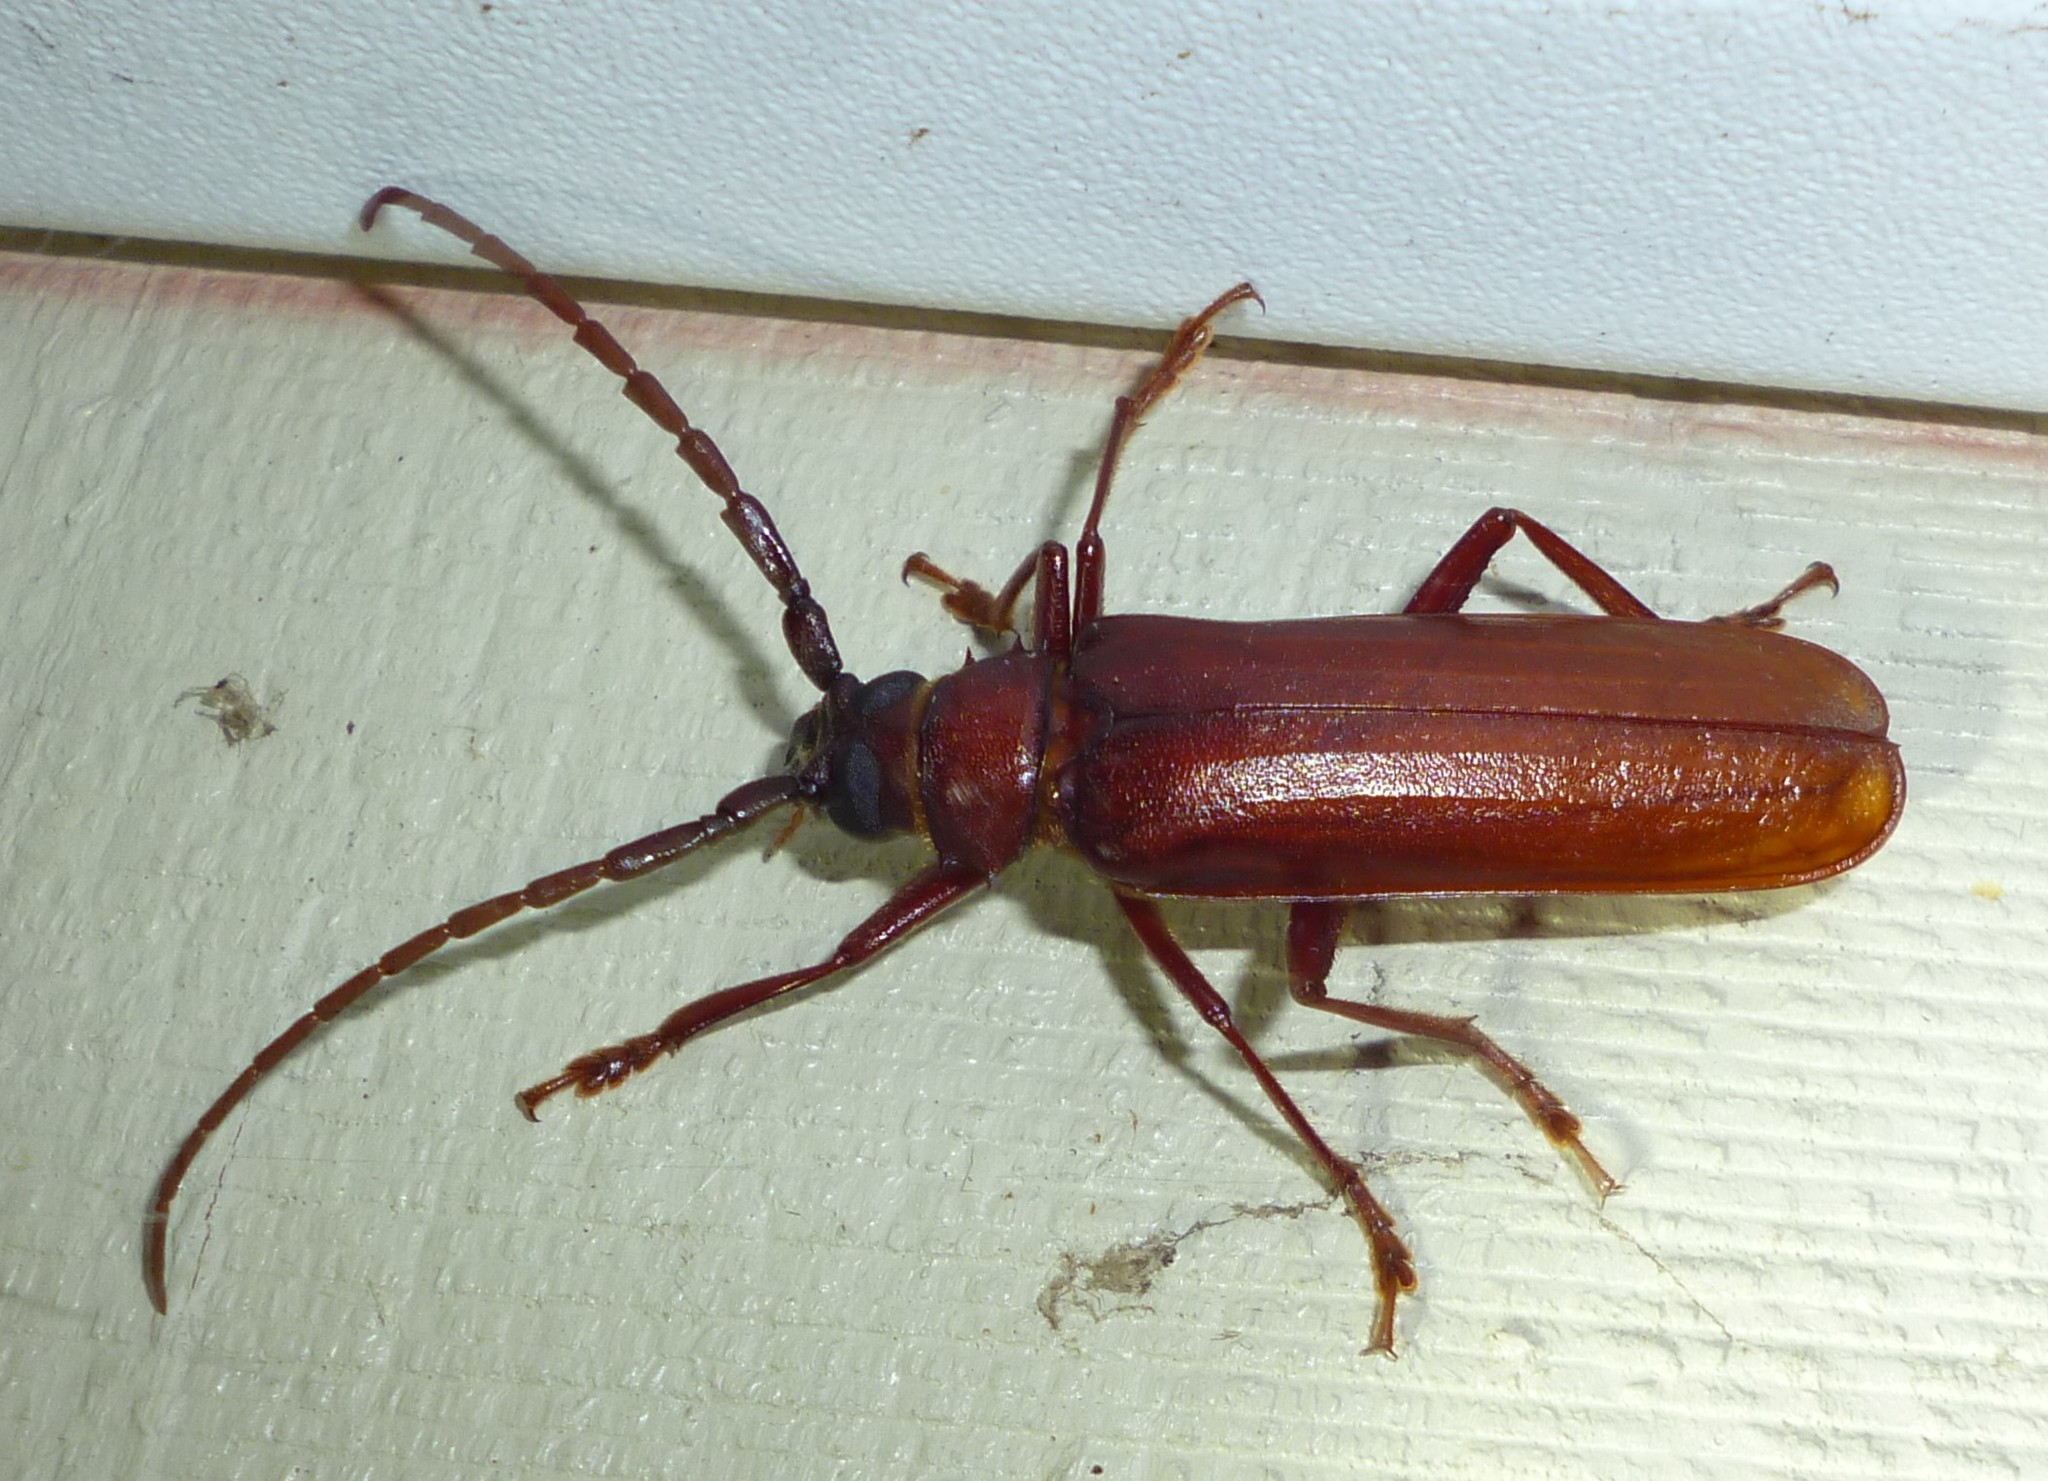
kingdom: Animalia
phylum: Arthropoda
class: Insecta
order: Coleoptera
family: Cerambycidae
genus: Orthosoma
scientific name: Orthosoma brunneum
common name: Brown prionid beetle
